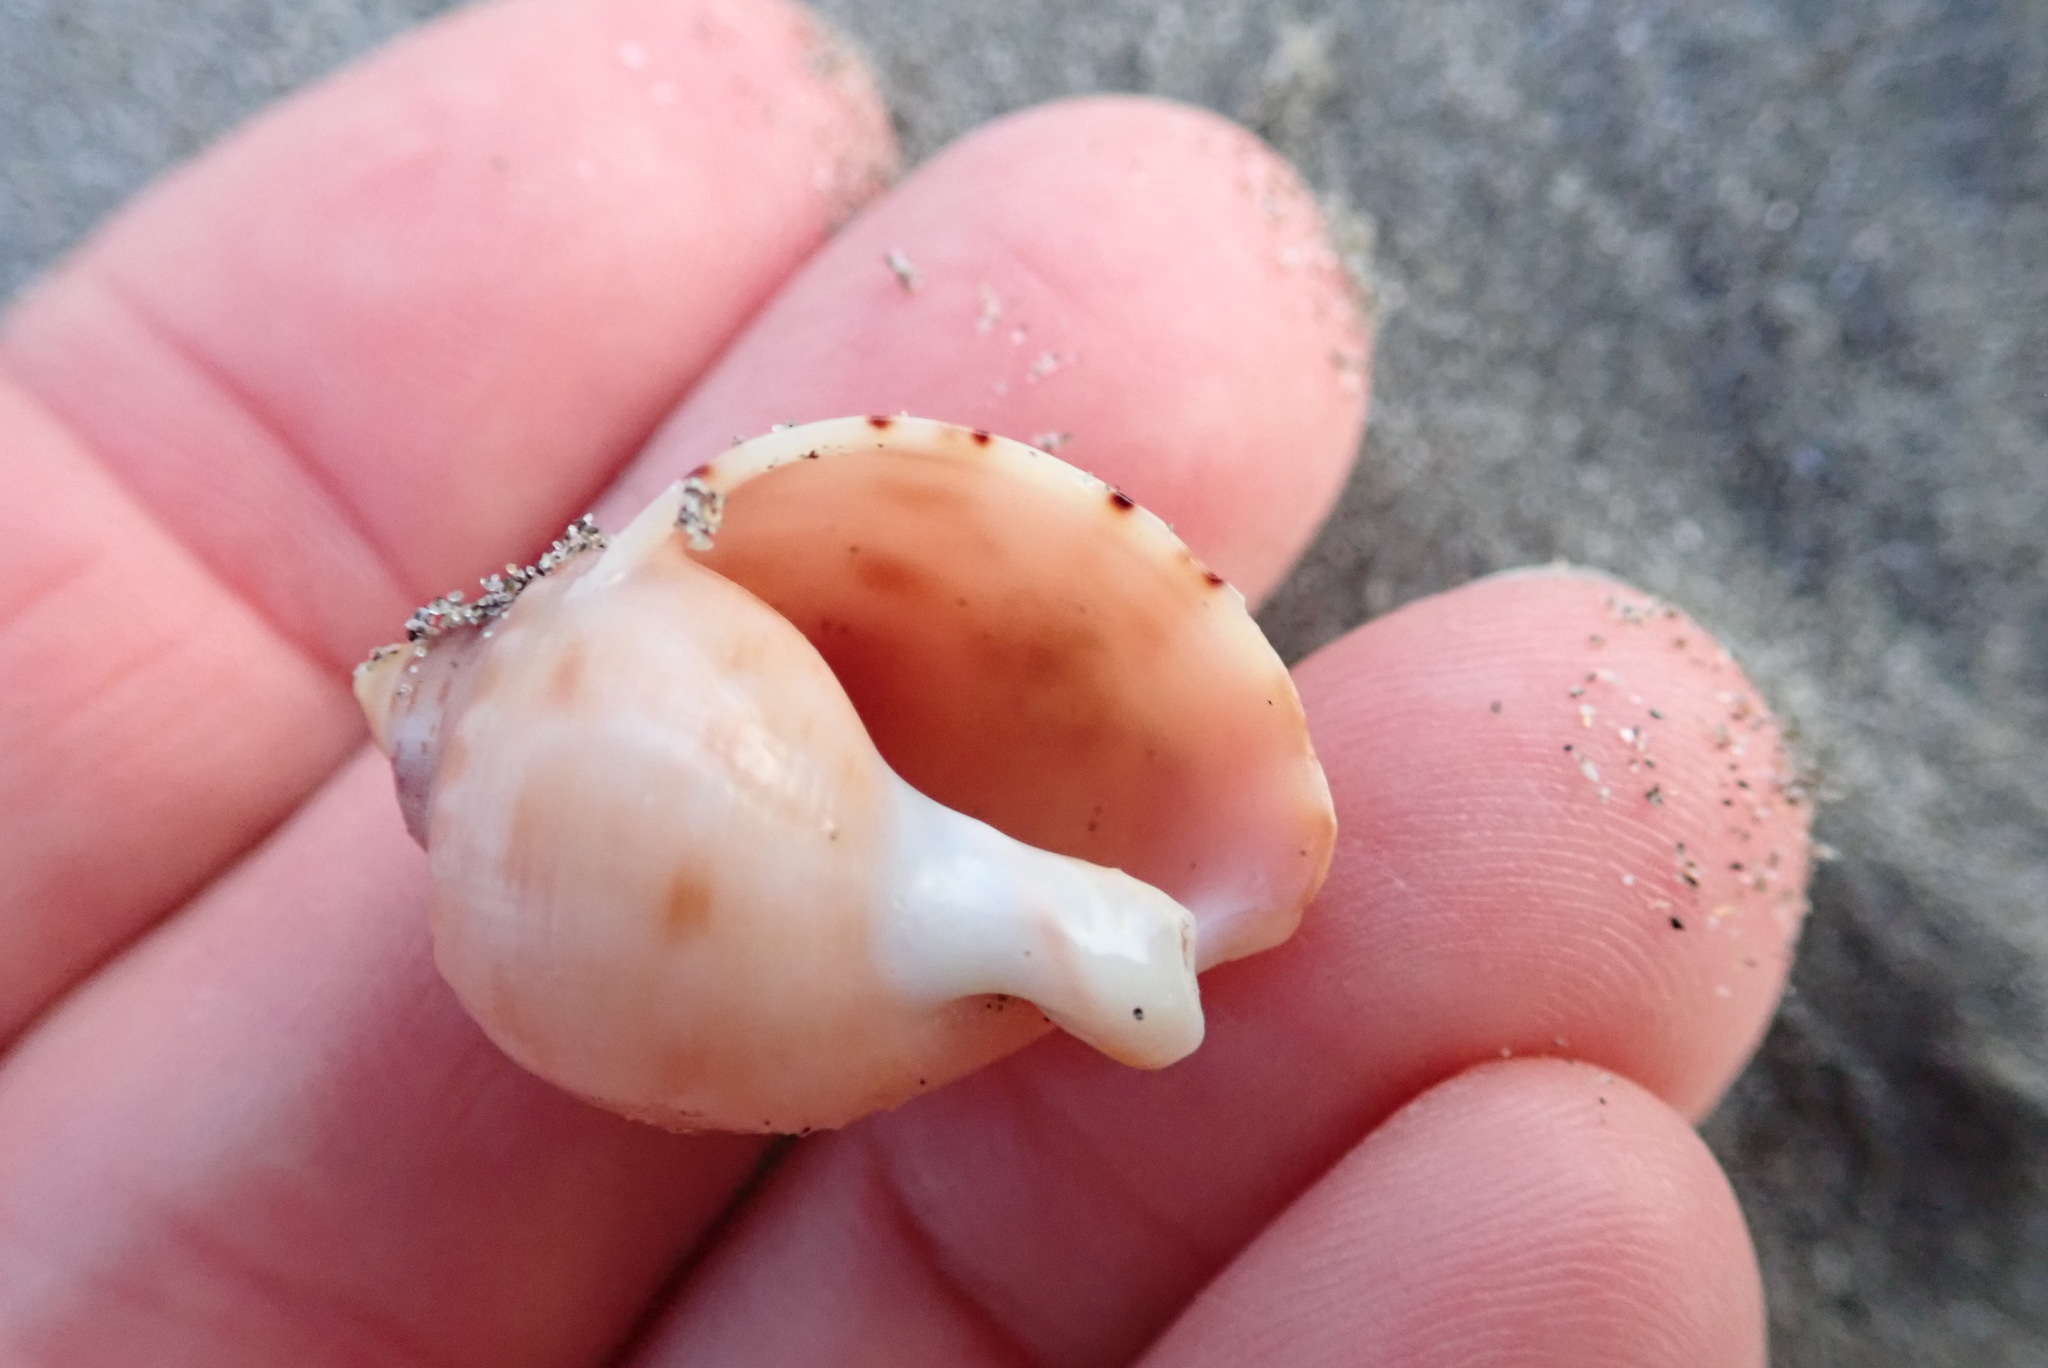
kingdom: Animalia
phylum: Mollusca
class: Gastropoda
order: Littorinimorpha
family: Cassidae
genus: Semicassis
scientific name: Semicassis pyrum
